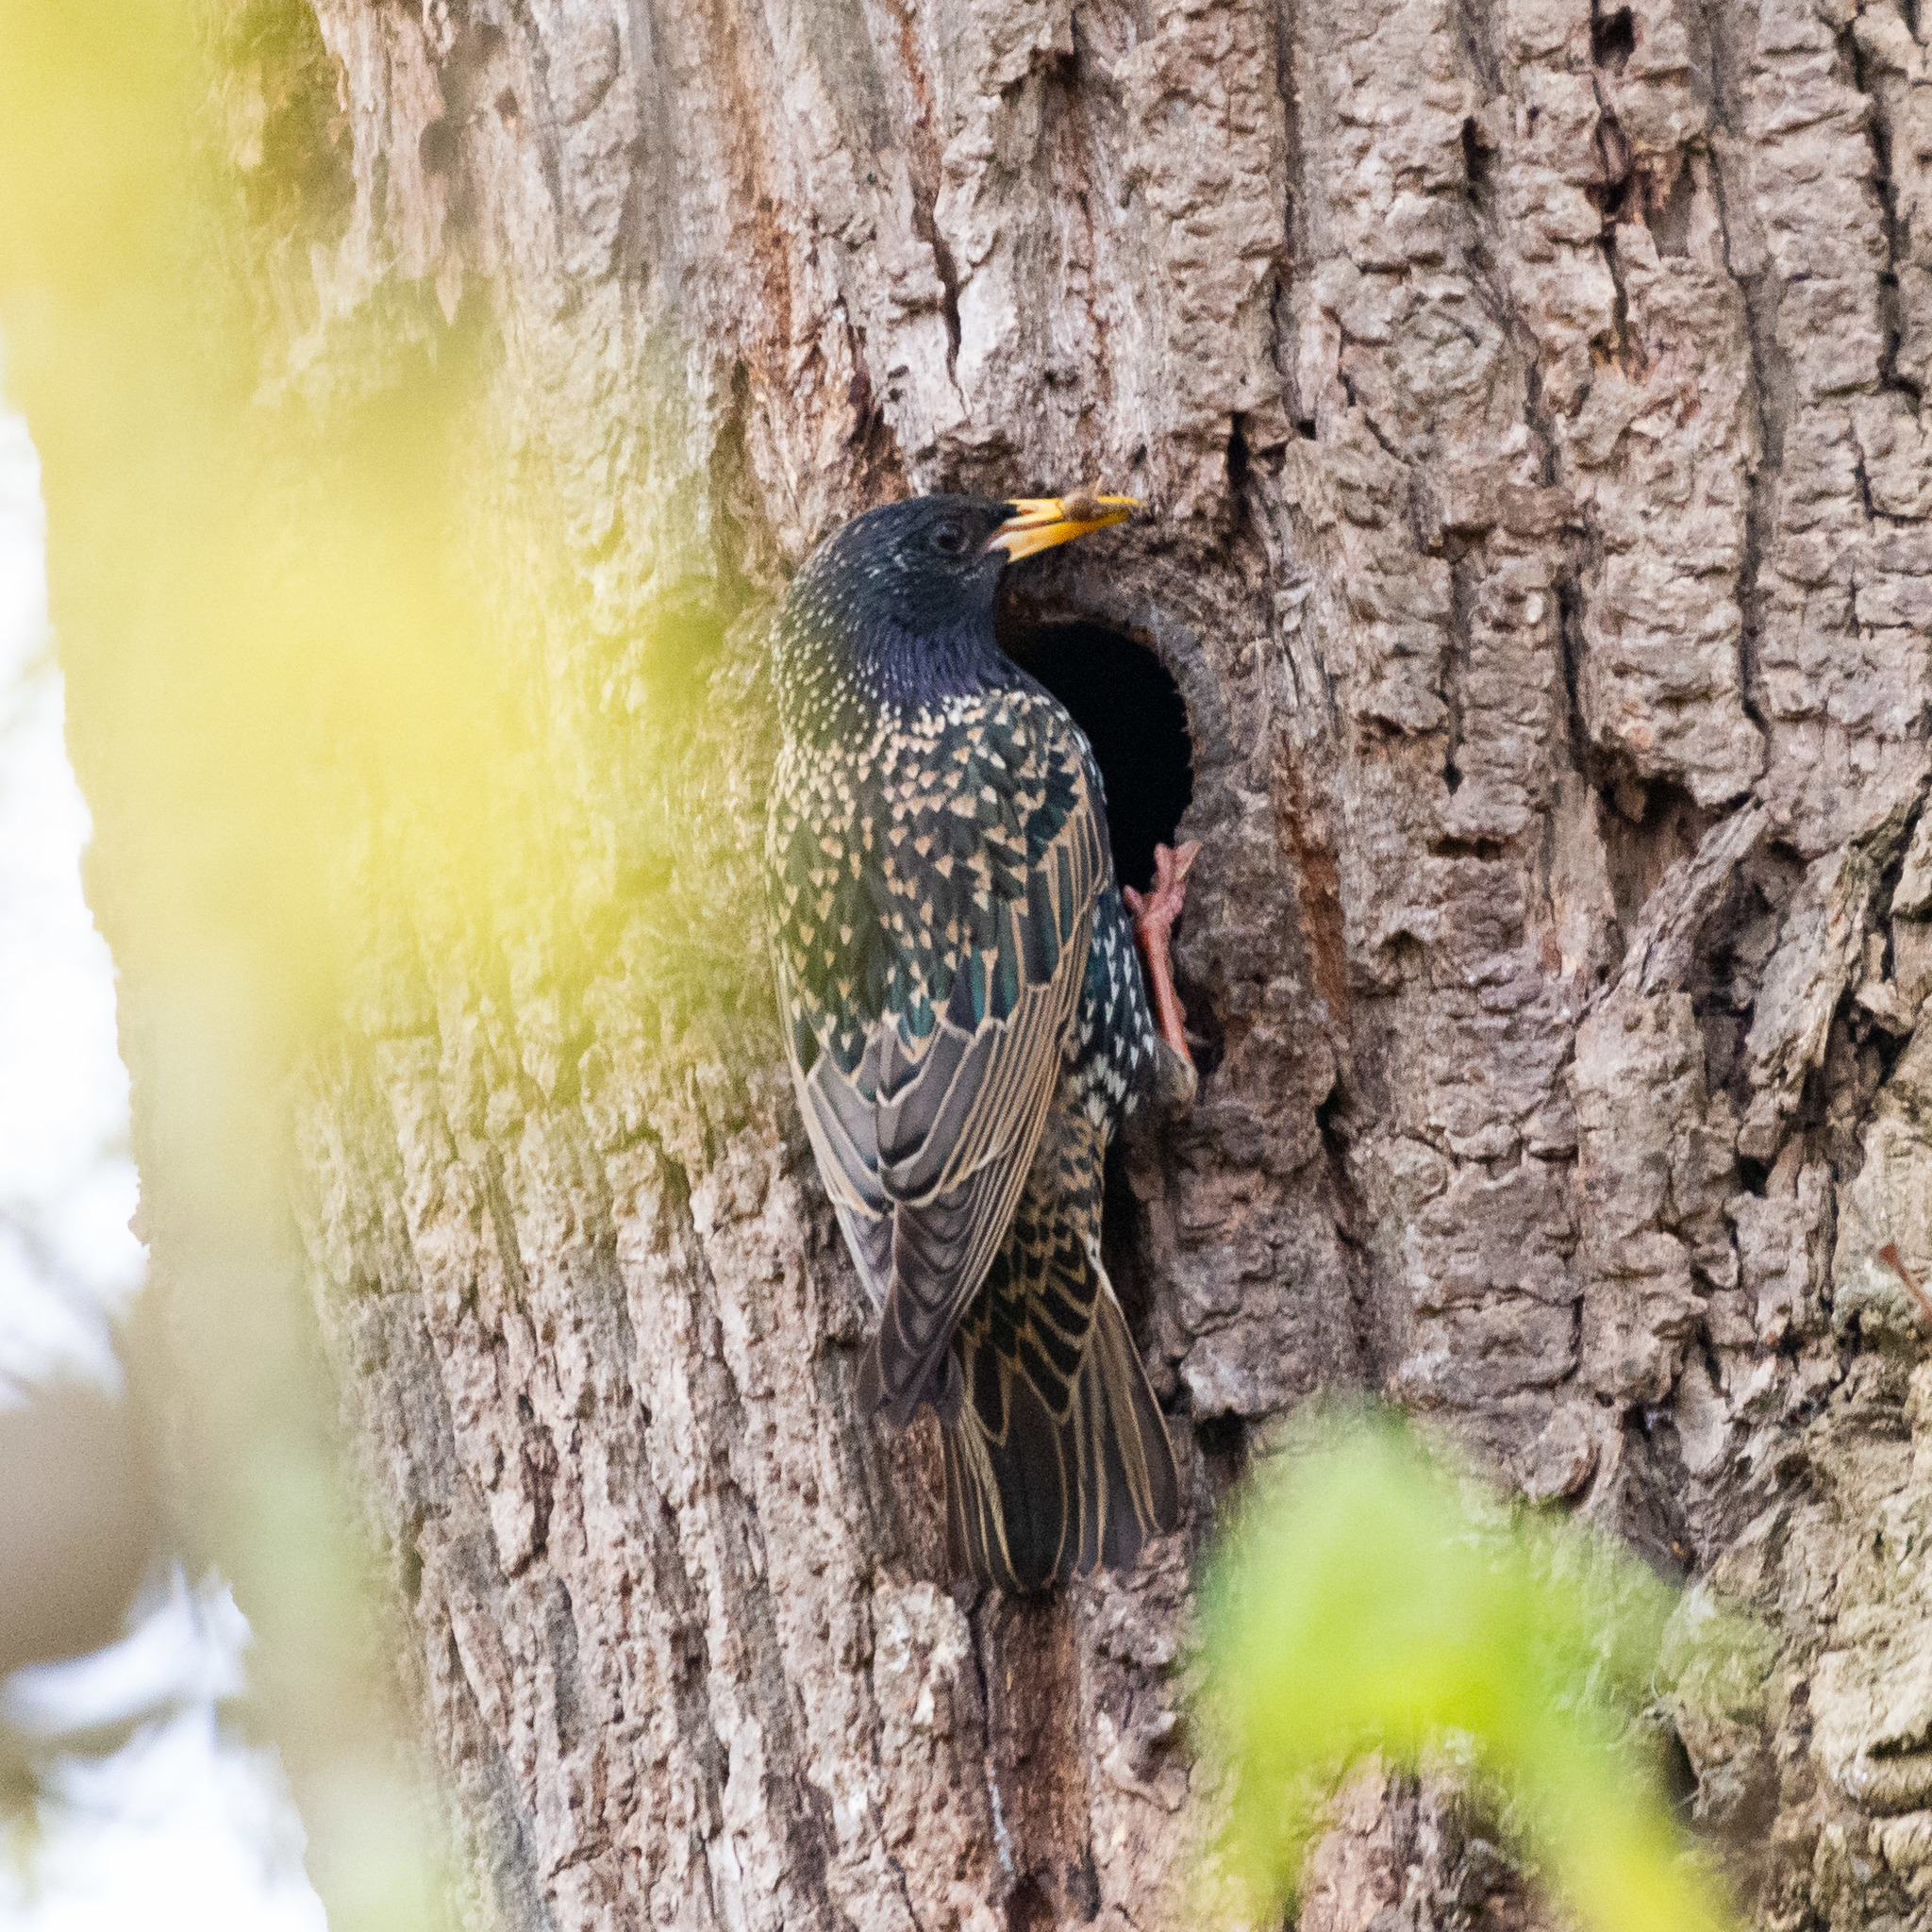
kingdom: Animalia
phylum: Chordata
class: Aves
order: Passeriformes
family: Sturnidae
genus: Sturnus
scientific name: Sturnus vulgaris
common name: Common starling
